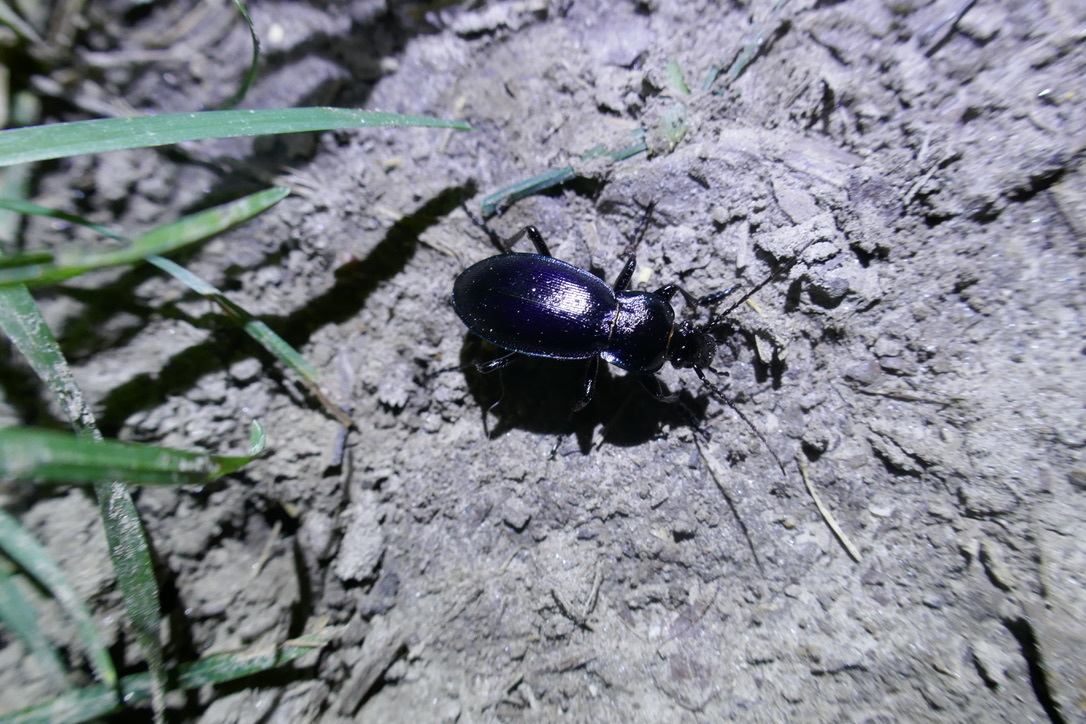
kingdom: Animalia
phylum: Arthropoda
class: Insecta
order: Coleoptera
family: Carabidae
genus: Carabus
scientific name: Carabus scheidleri
